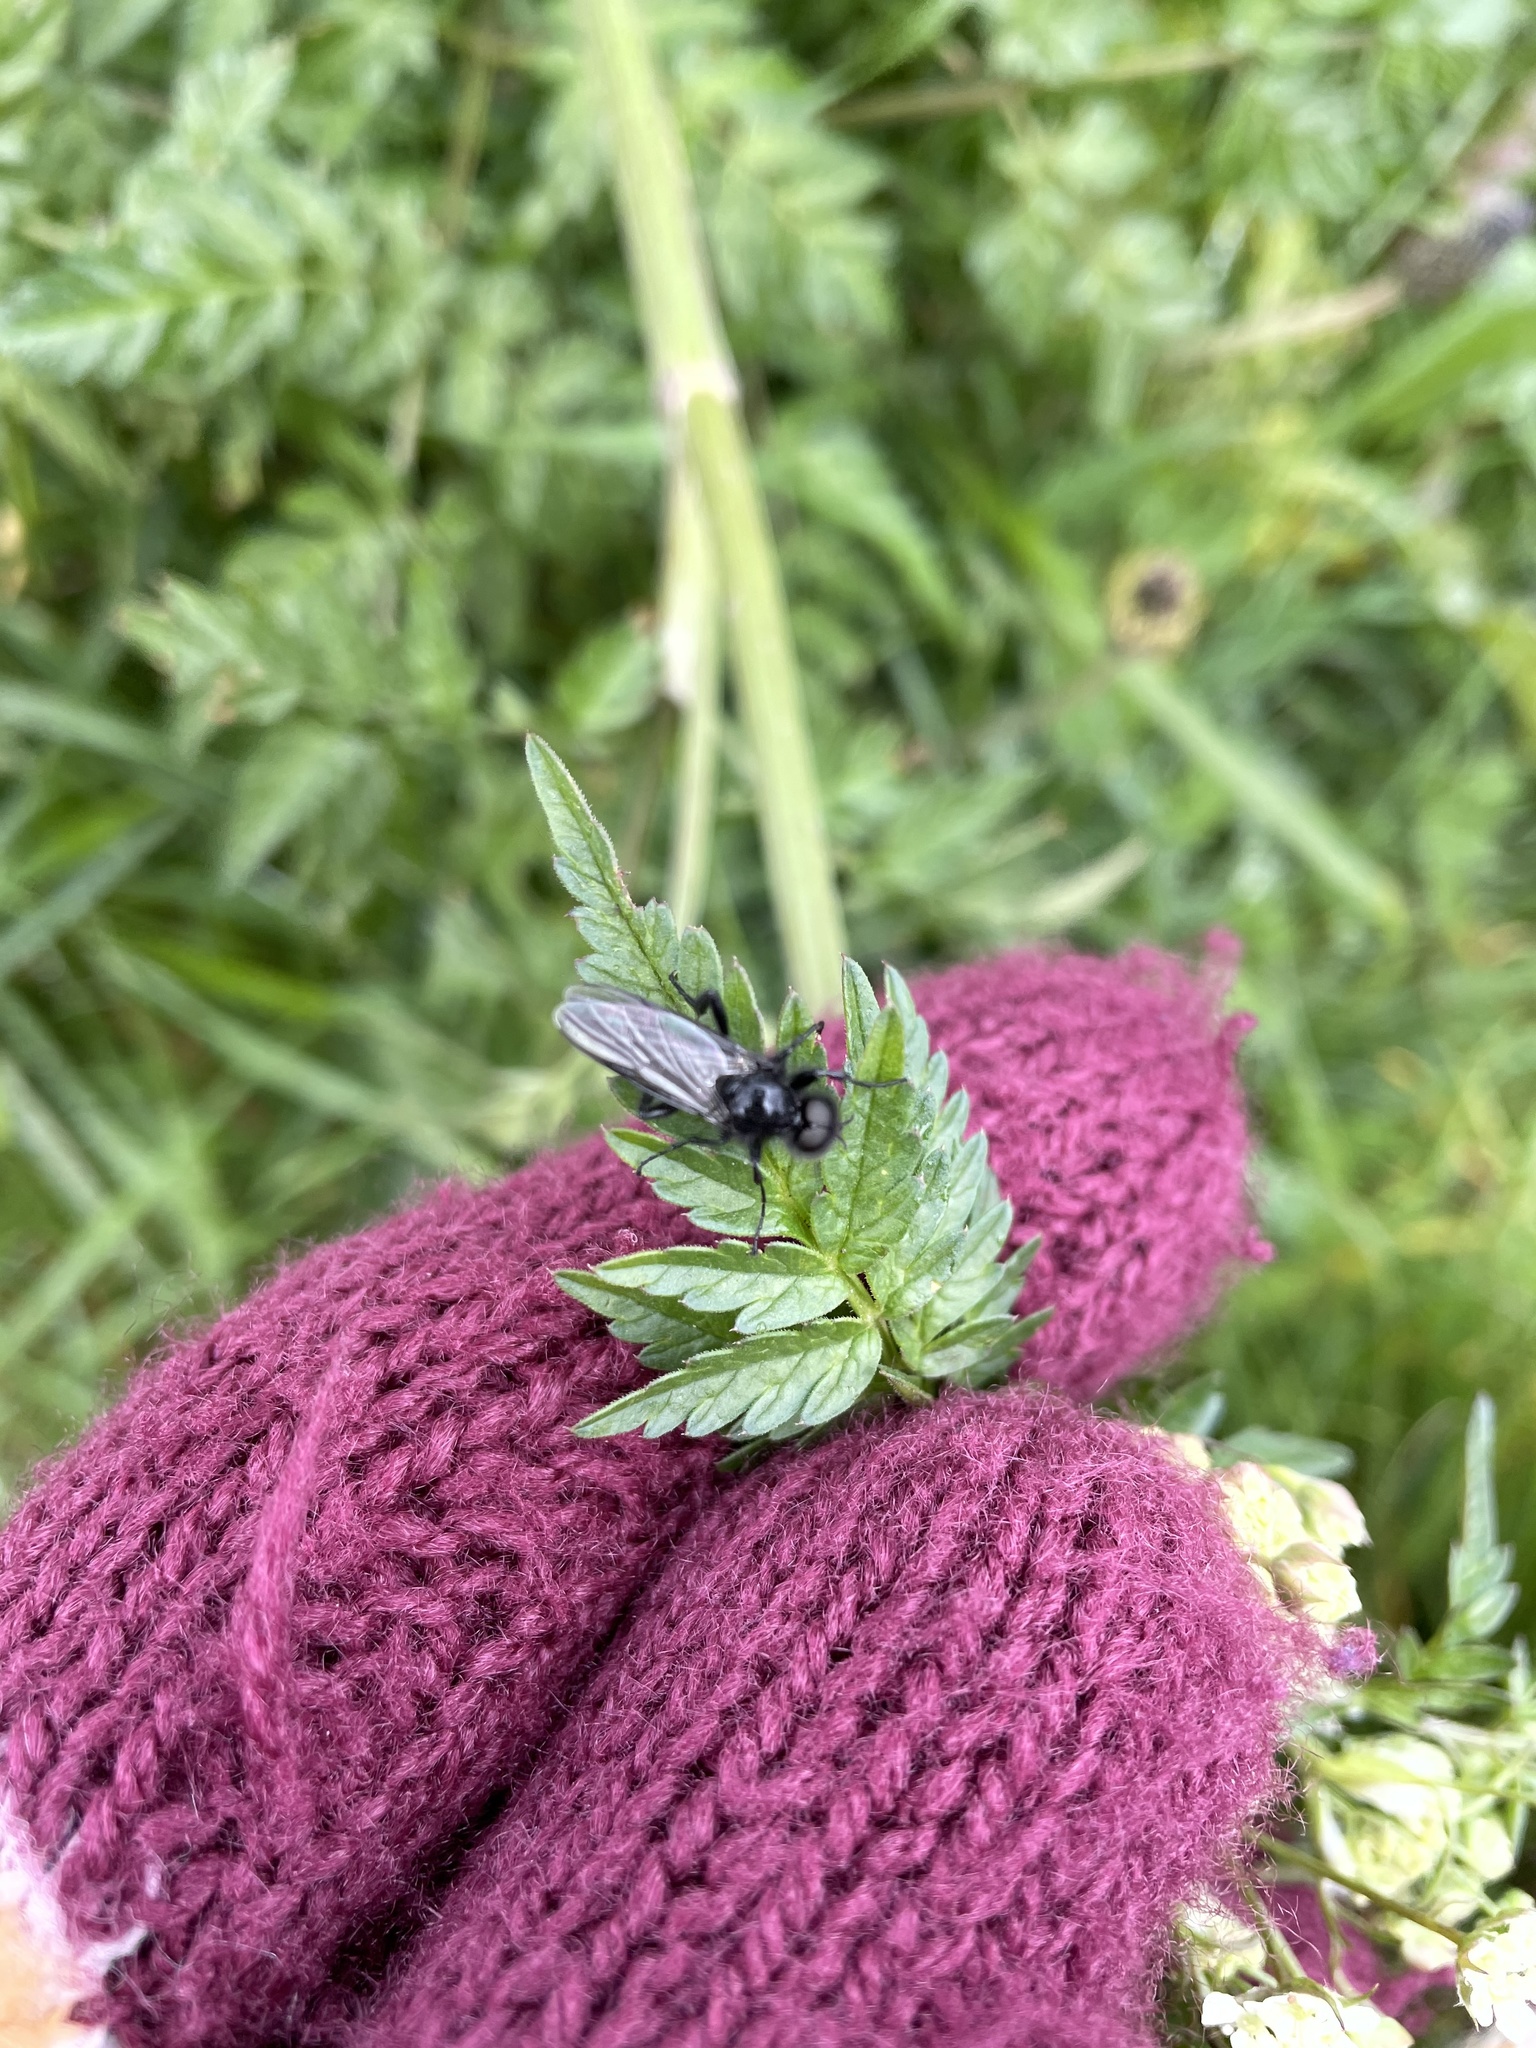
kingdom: Animalia
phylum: Arthropoda
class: Insecta
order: Diptera
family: Bibionidae
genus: Bibio
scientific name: Bibio marci
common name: St marks fly
